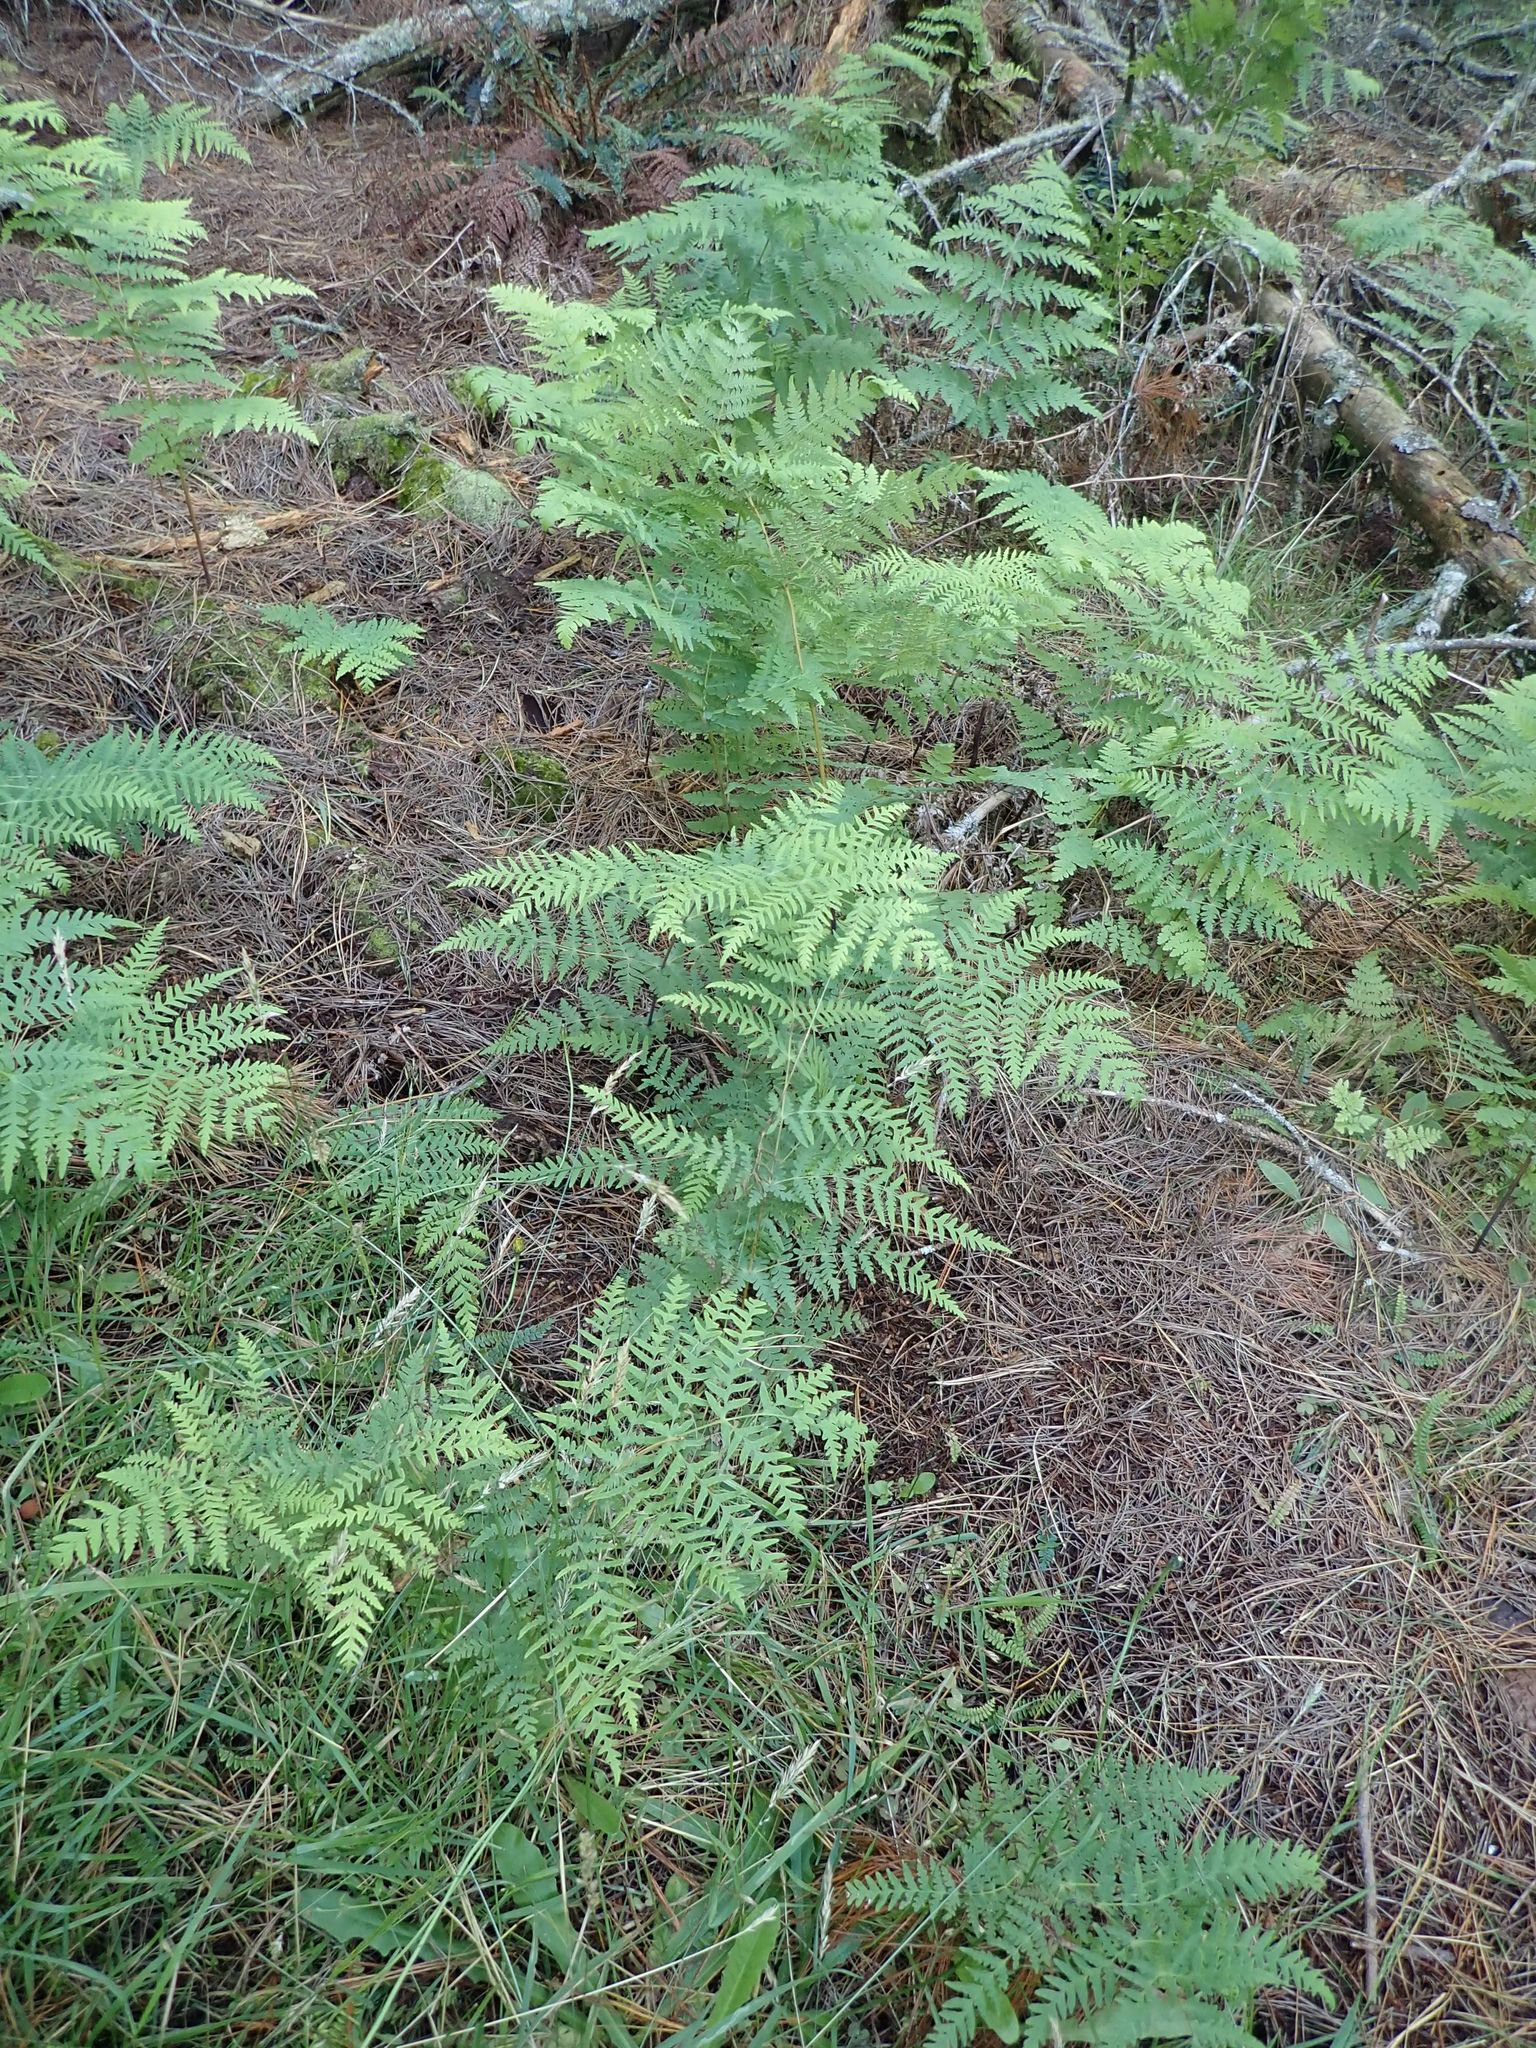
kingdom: Plantae
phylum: Tracheophyta
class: Polypodiopsida
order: Polypodiales
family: Dennstaedtiaceae
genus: Histiopteris
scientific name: Histiopteris incisa
